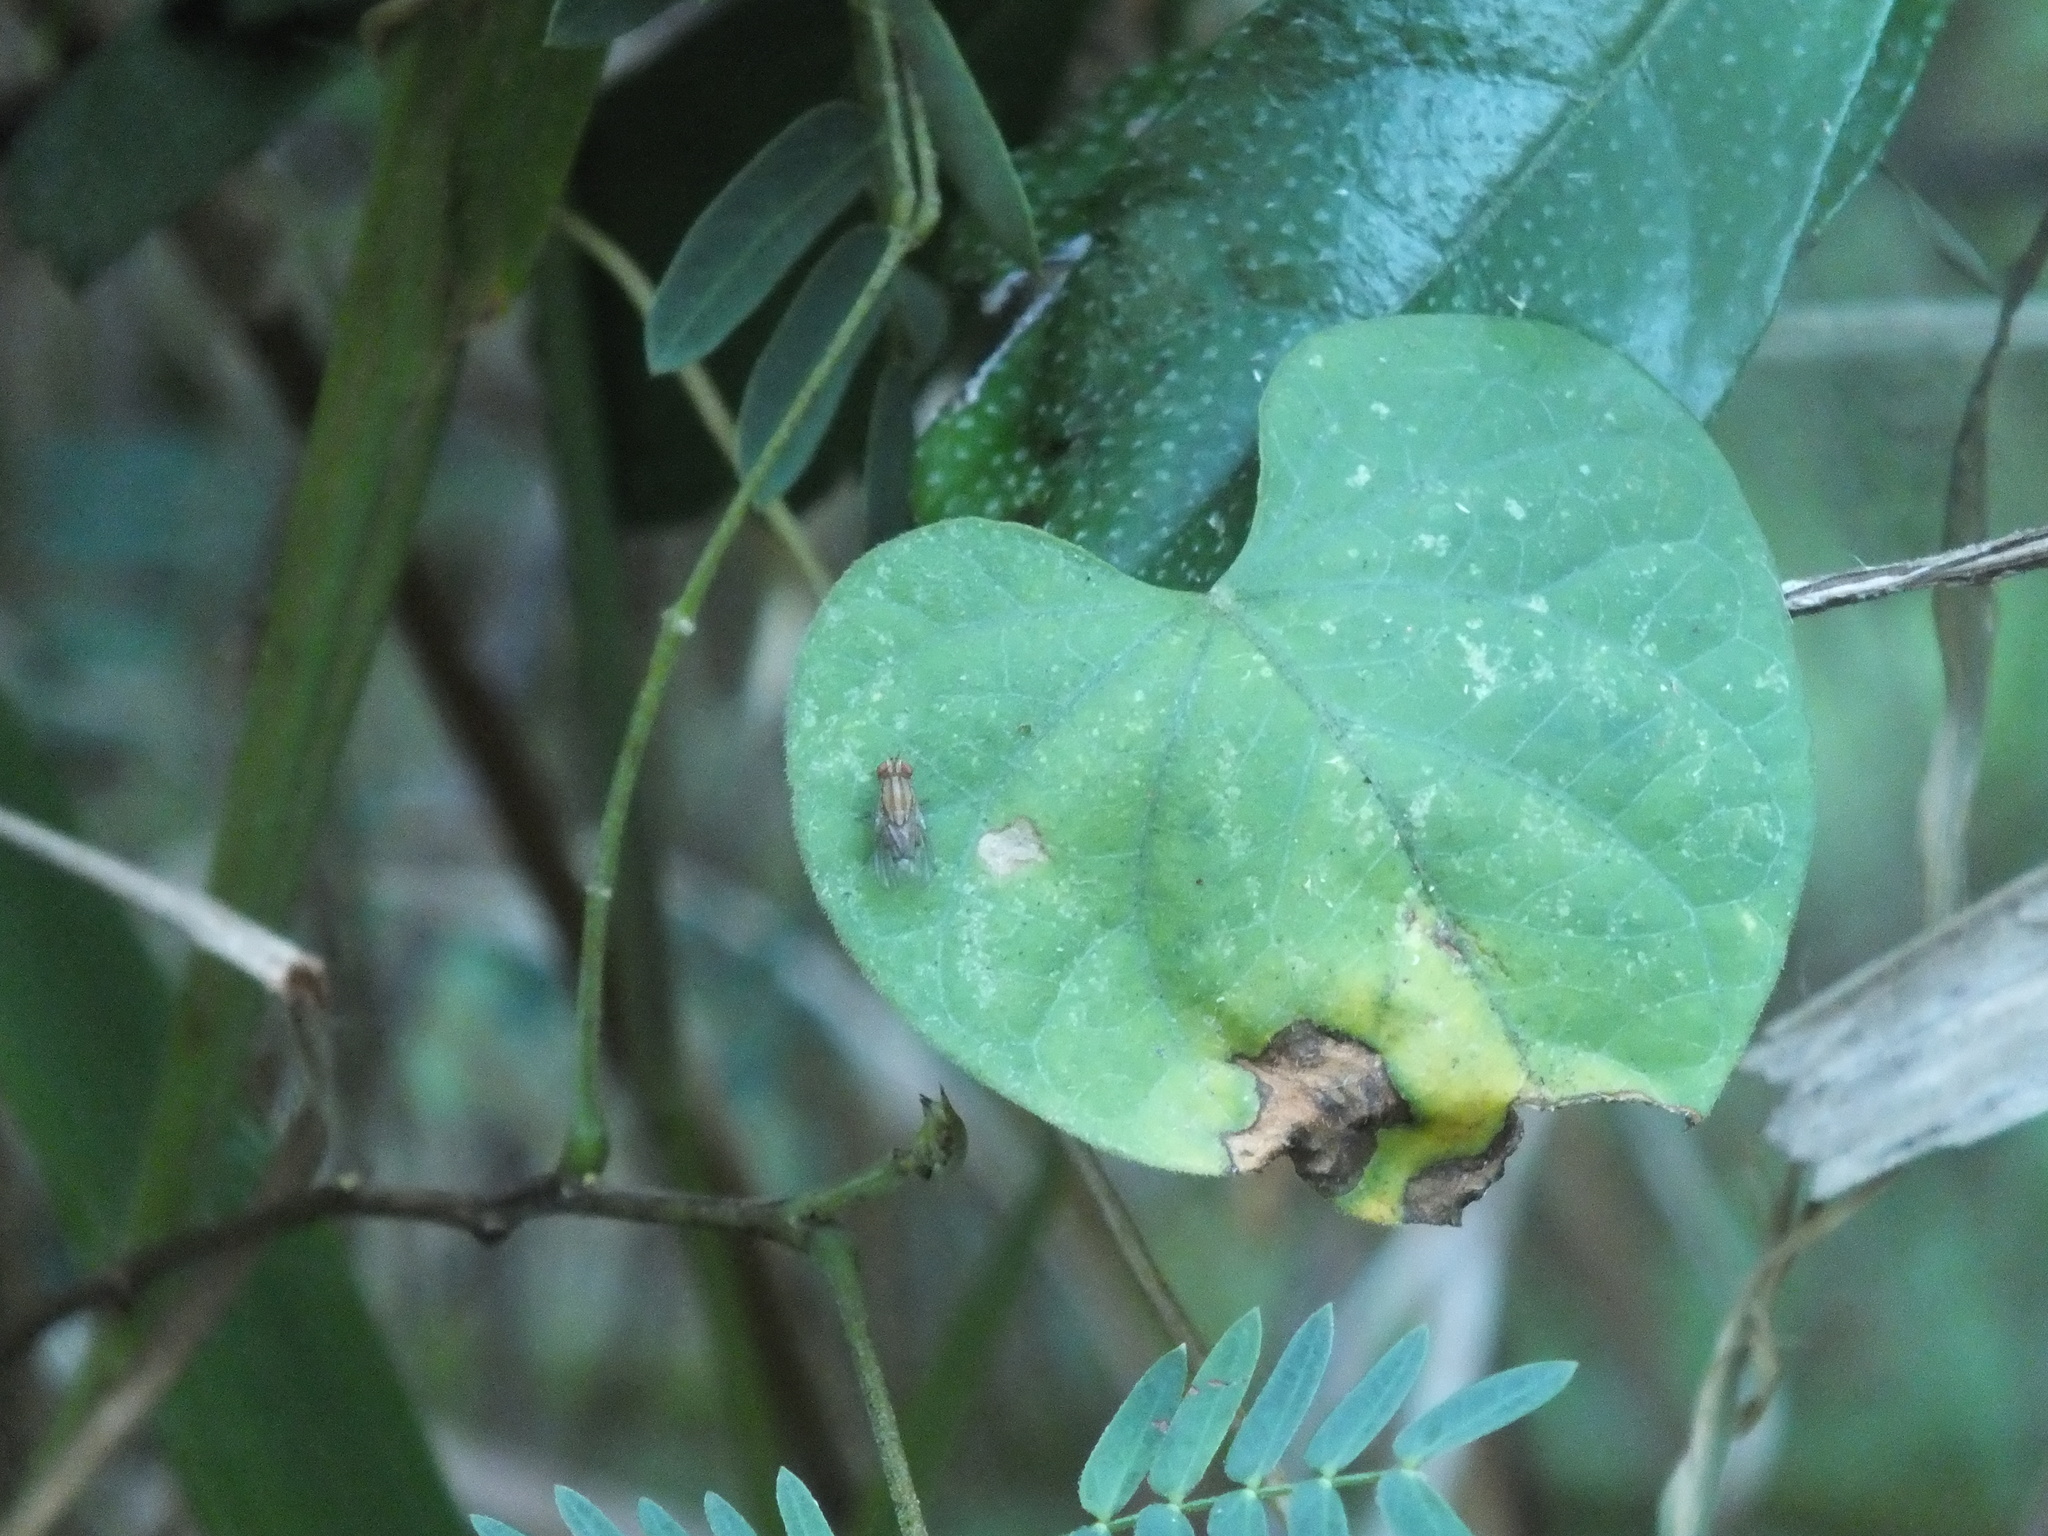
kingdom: Animalia
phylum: Arthropoda
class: Insecta
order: Diptera
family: Drosophilidae
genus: Drosophila
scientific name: Drosophila quadrilineata
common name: Pomace fly
